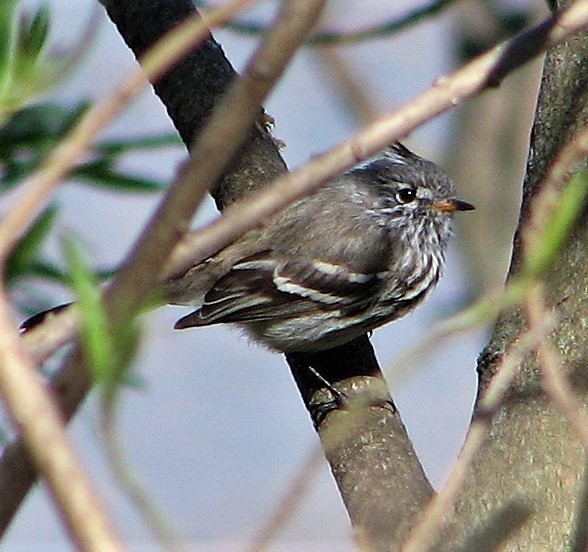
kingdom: Animalia
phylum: Chordata
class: Aves
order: Passeriformes
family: Tyrannidae
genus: Anairetes
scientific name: Anairetes flavirostris
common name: Yellow-billed tit-tyrant
